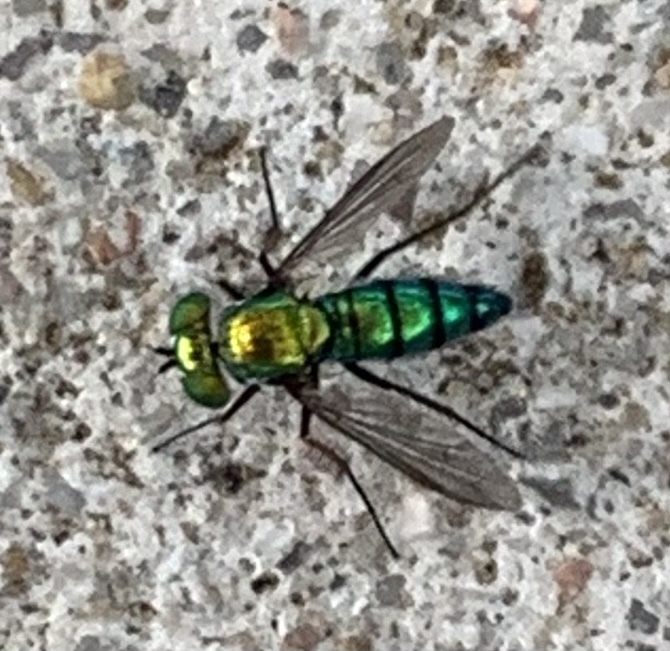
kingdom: Animalia
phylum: Arthropoda
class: Insecta
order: Diptera
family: Dolichopodidae
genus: Condylostylus
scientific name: Condylostylus longicornis
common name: Long-legged fly
